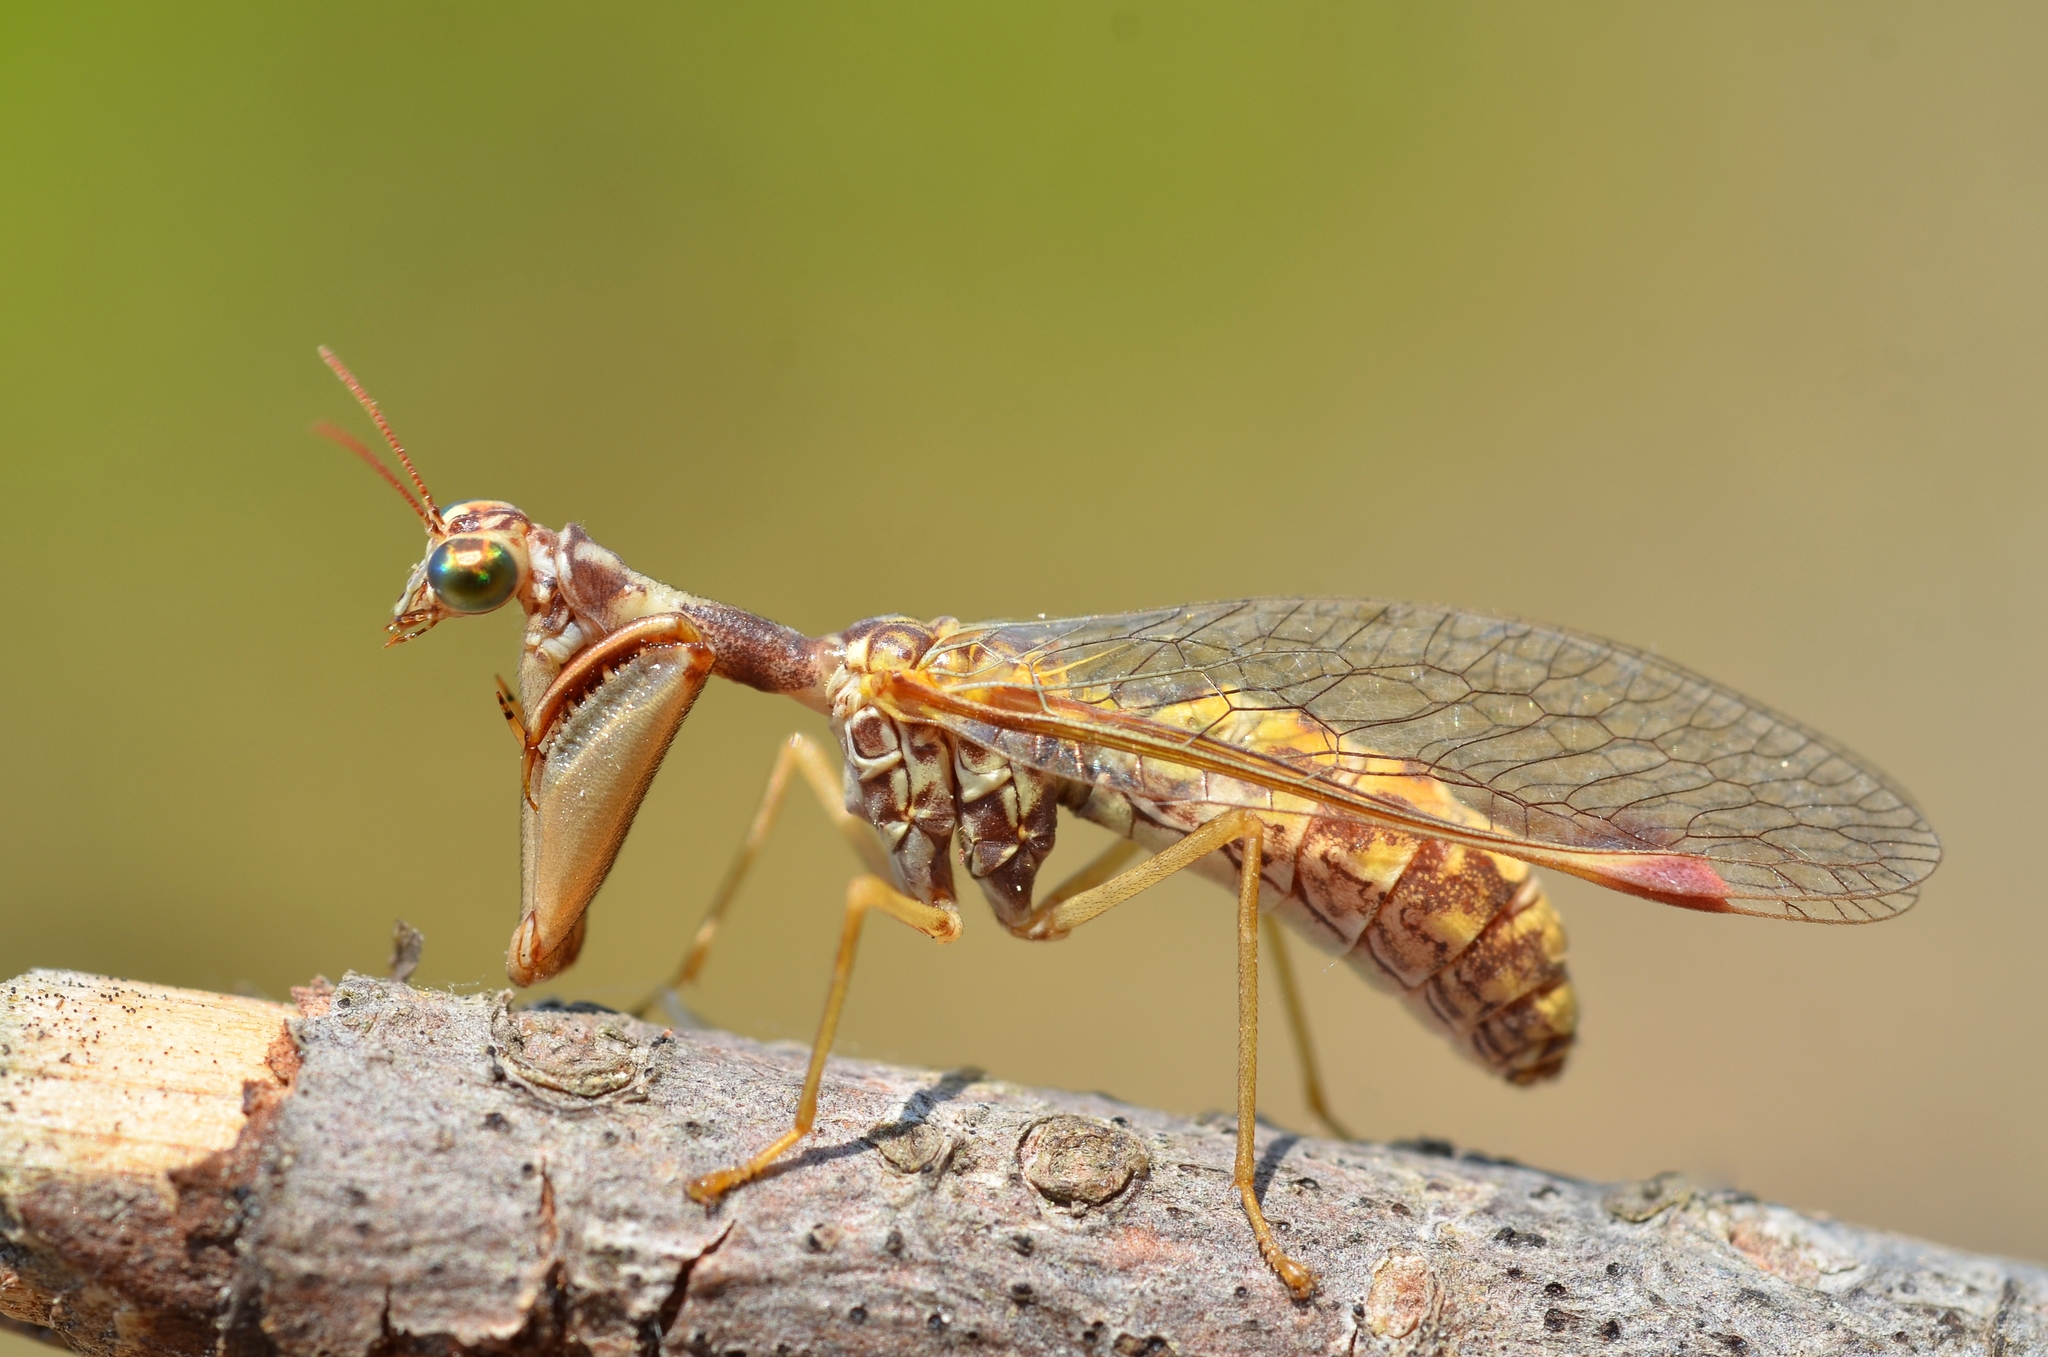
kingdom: Animalia
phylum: Arthropoda
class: Insecta
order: Neuroptera
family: Mantispidae
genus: Mantispa
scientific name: Mantispa styriaca
